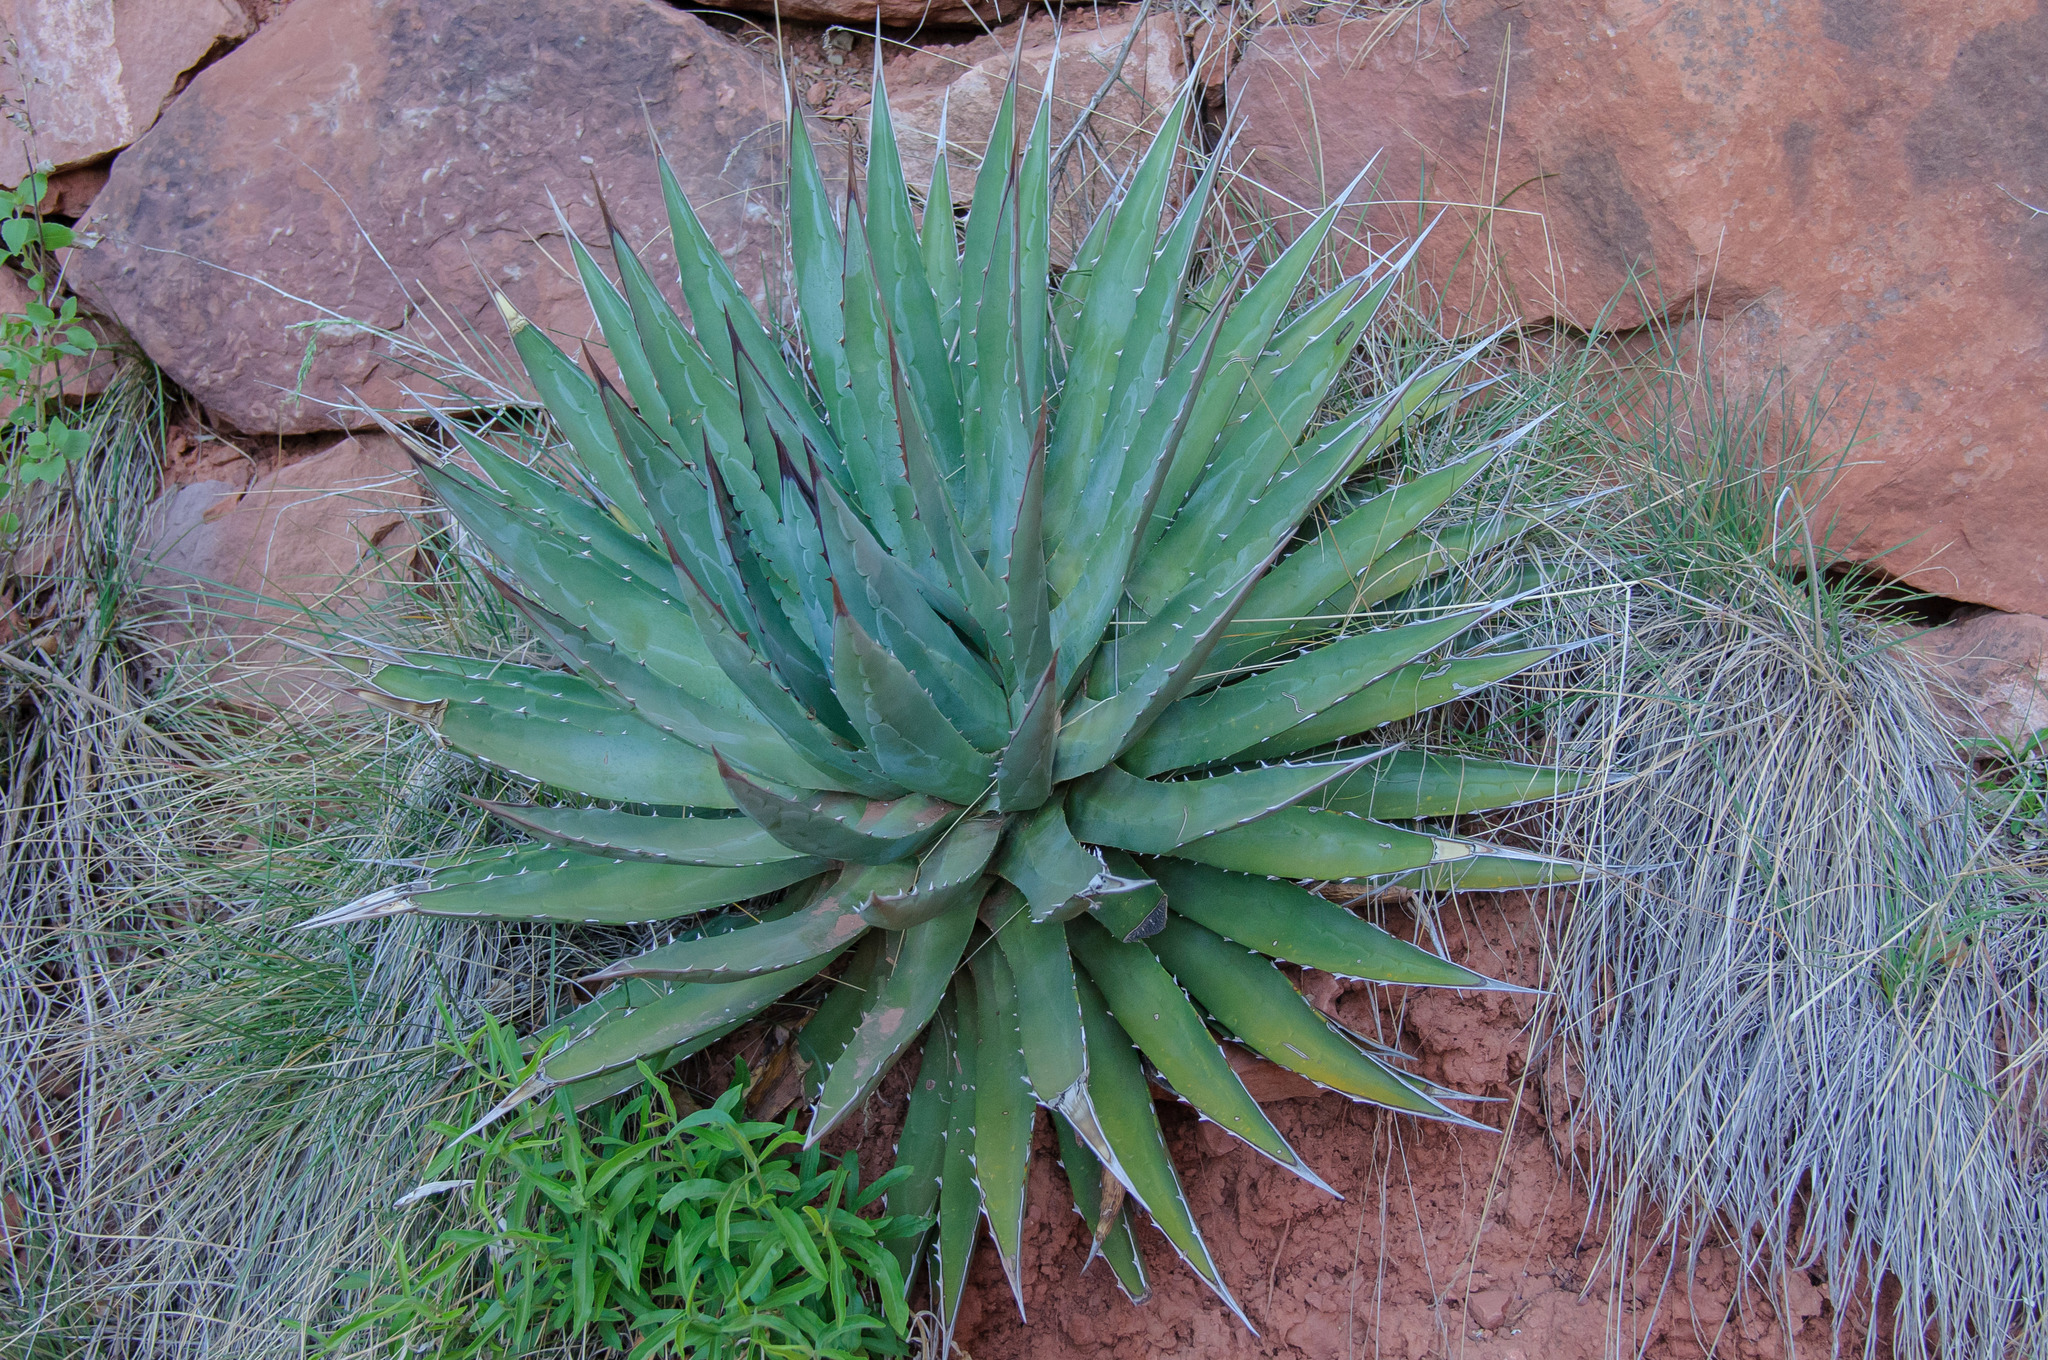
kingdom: Plantae
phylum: Tracheophyta
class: Liliopsida
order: Asparagales
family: Asparagaceae
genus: Agave
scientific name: Agave utahensis
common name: Utah agave
